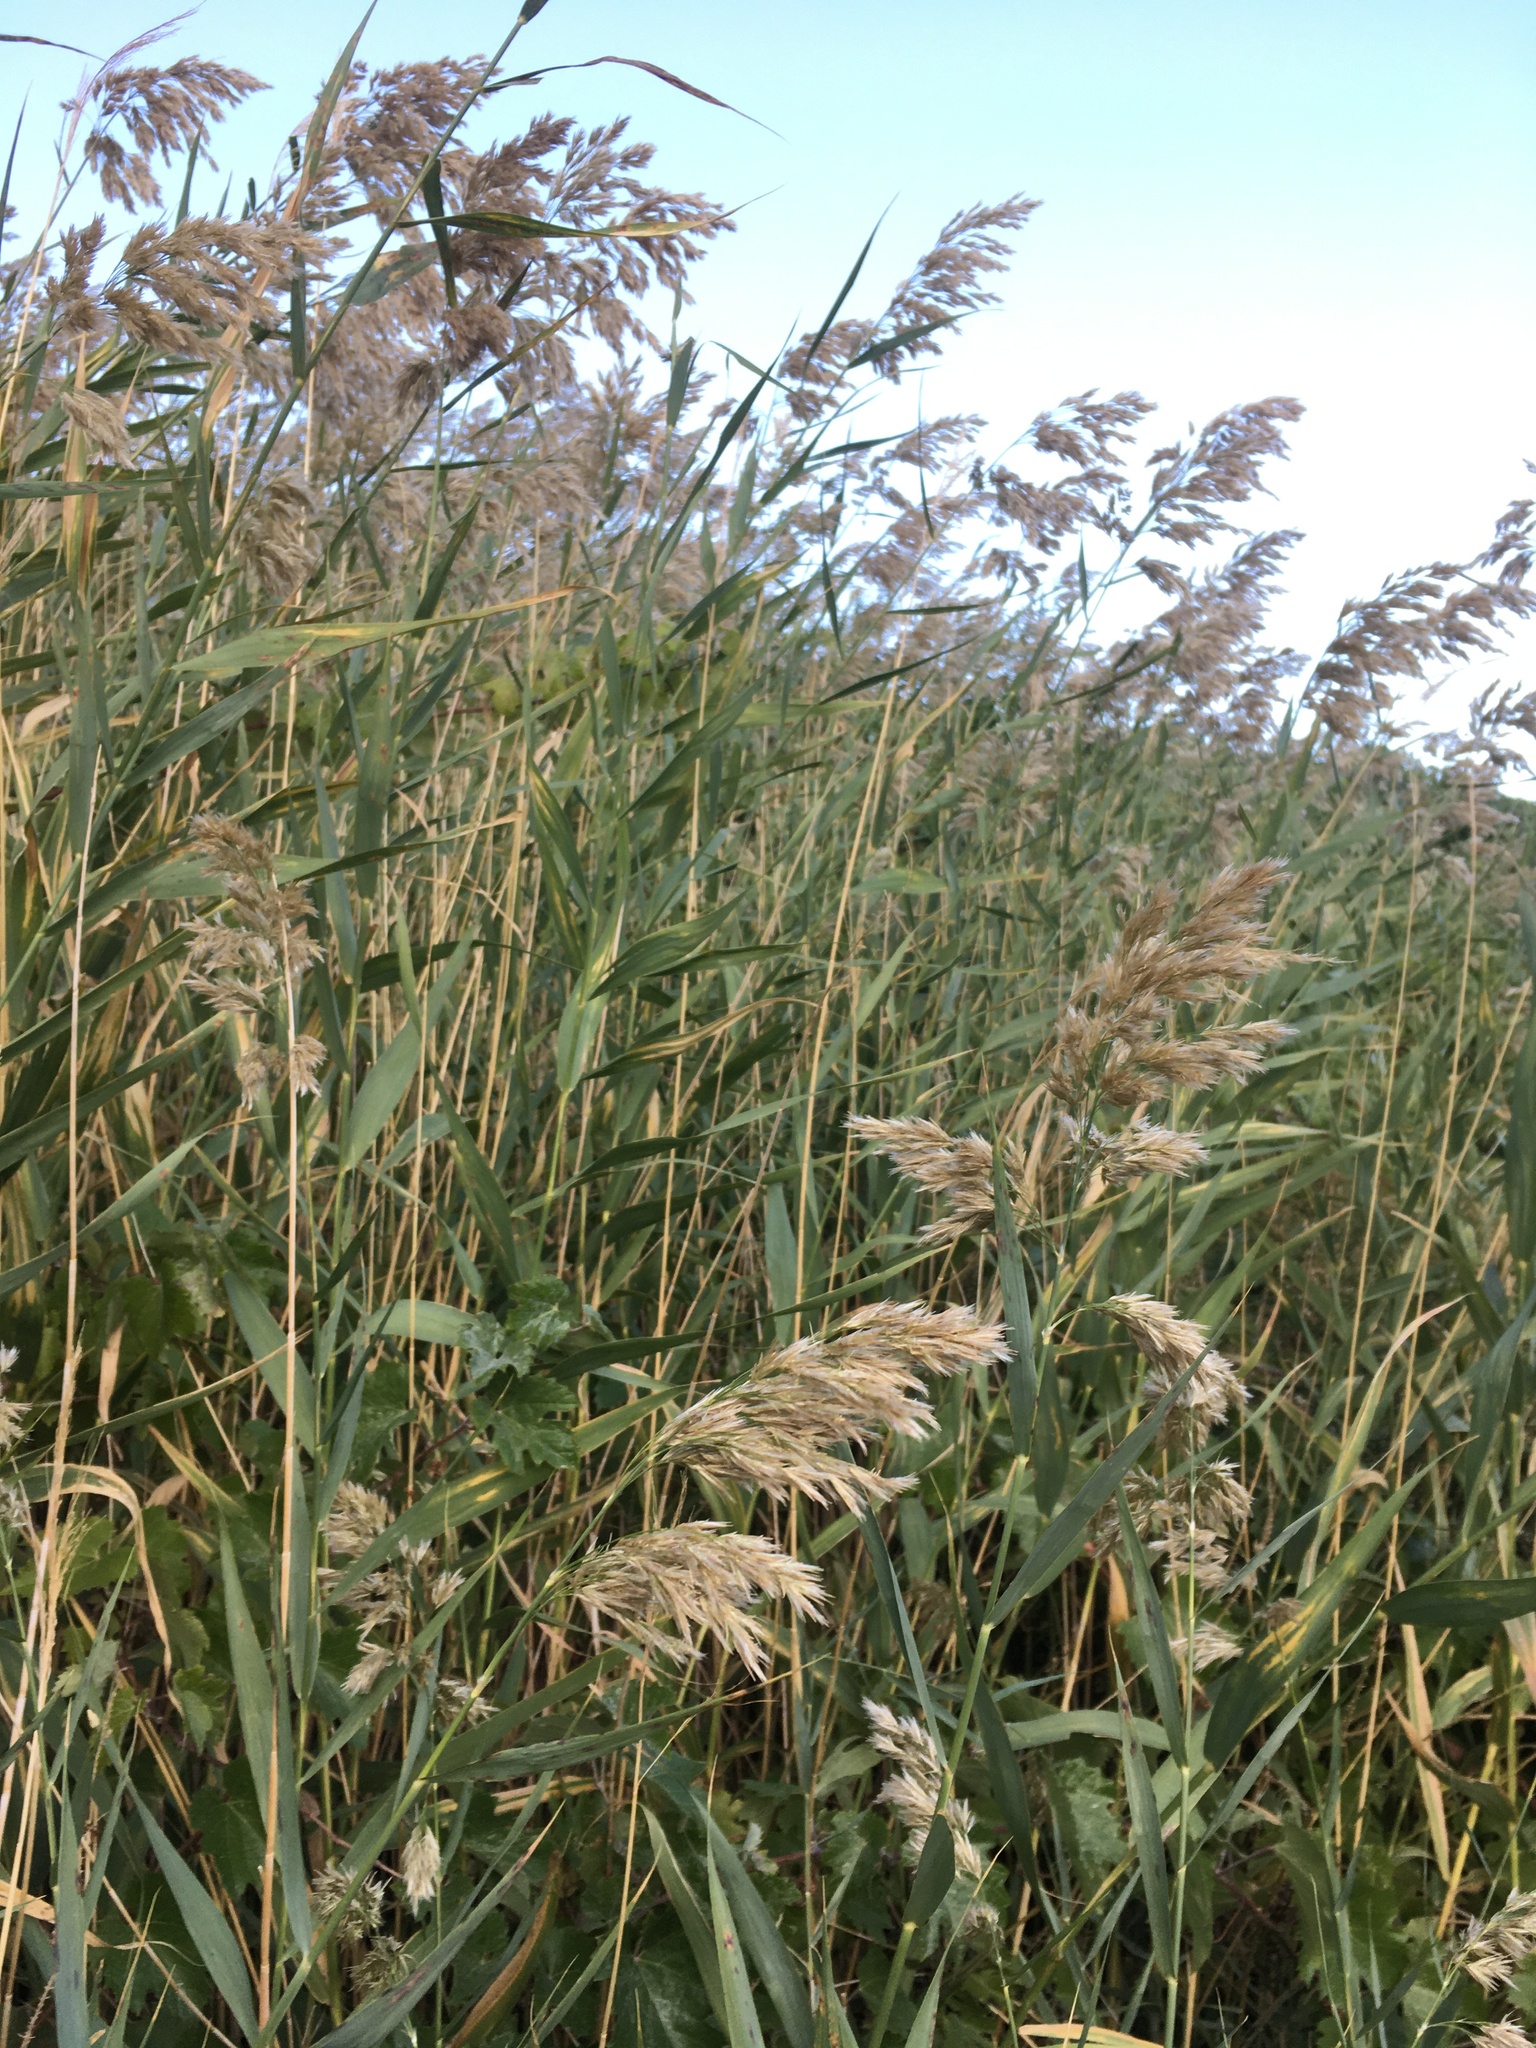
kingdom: Plantae
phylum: Tracheophyta
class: Liliopsida
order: Poales
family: Poaceae
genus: Phragmites
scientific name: Phragmites australis
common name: Common reed
